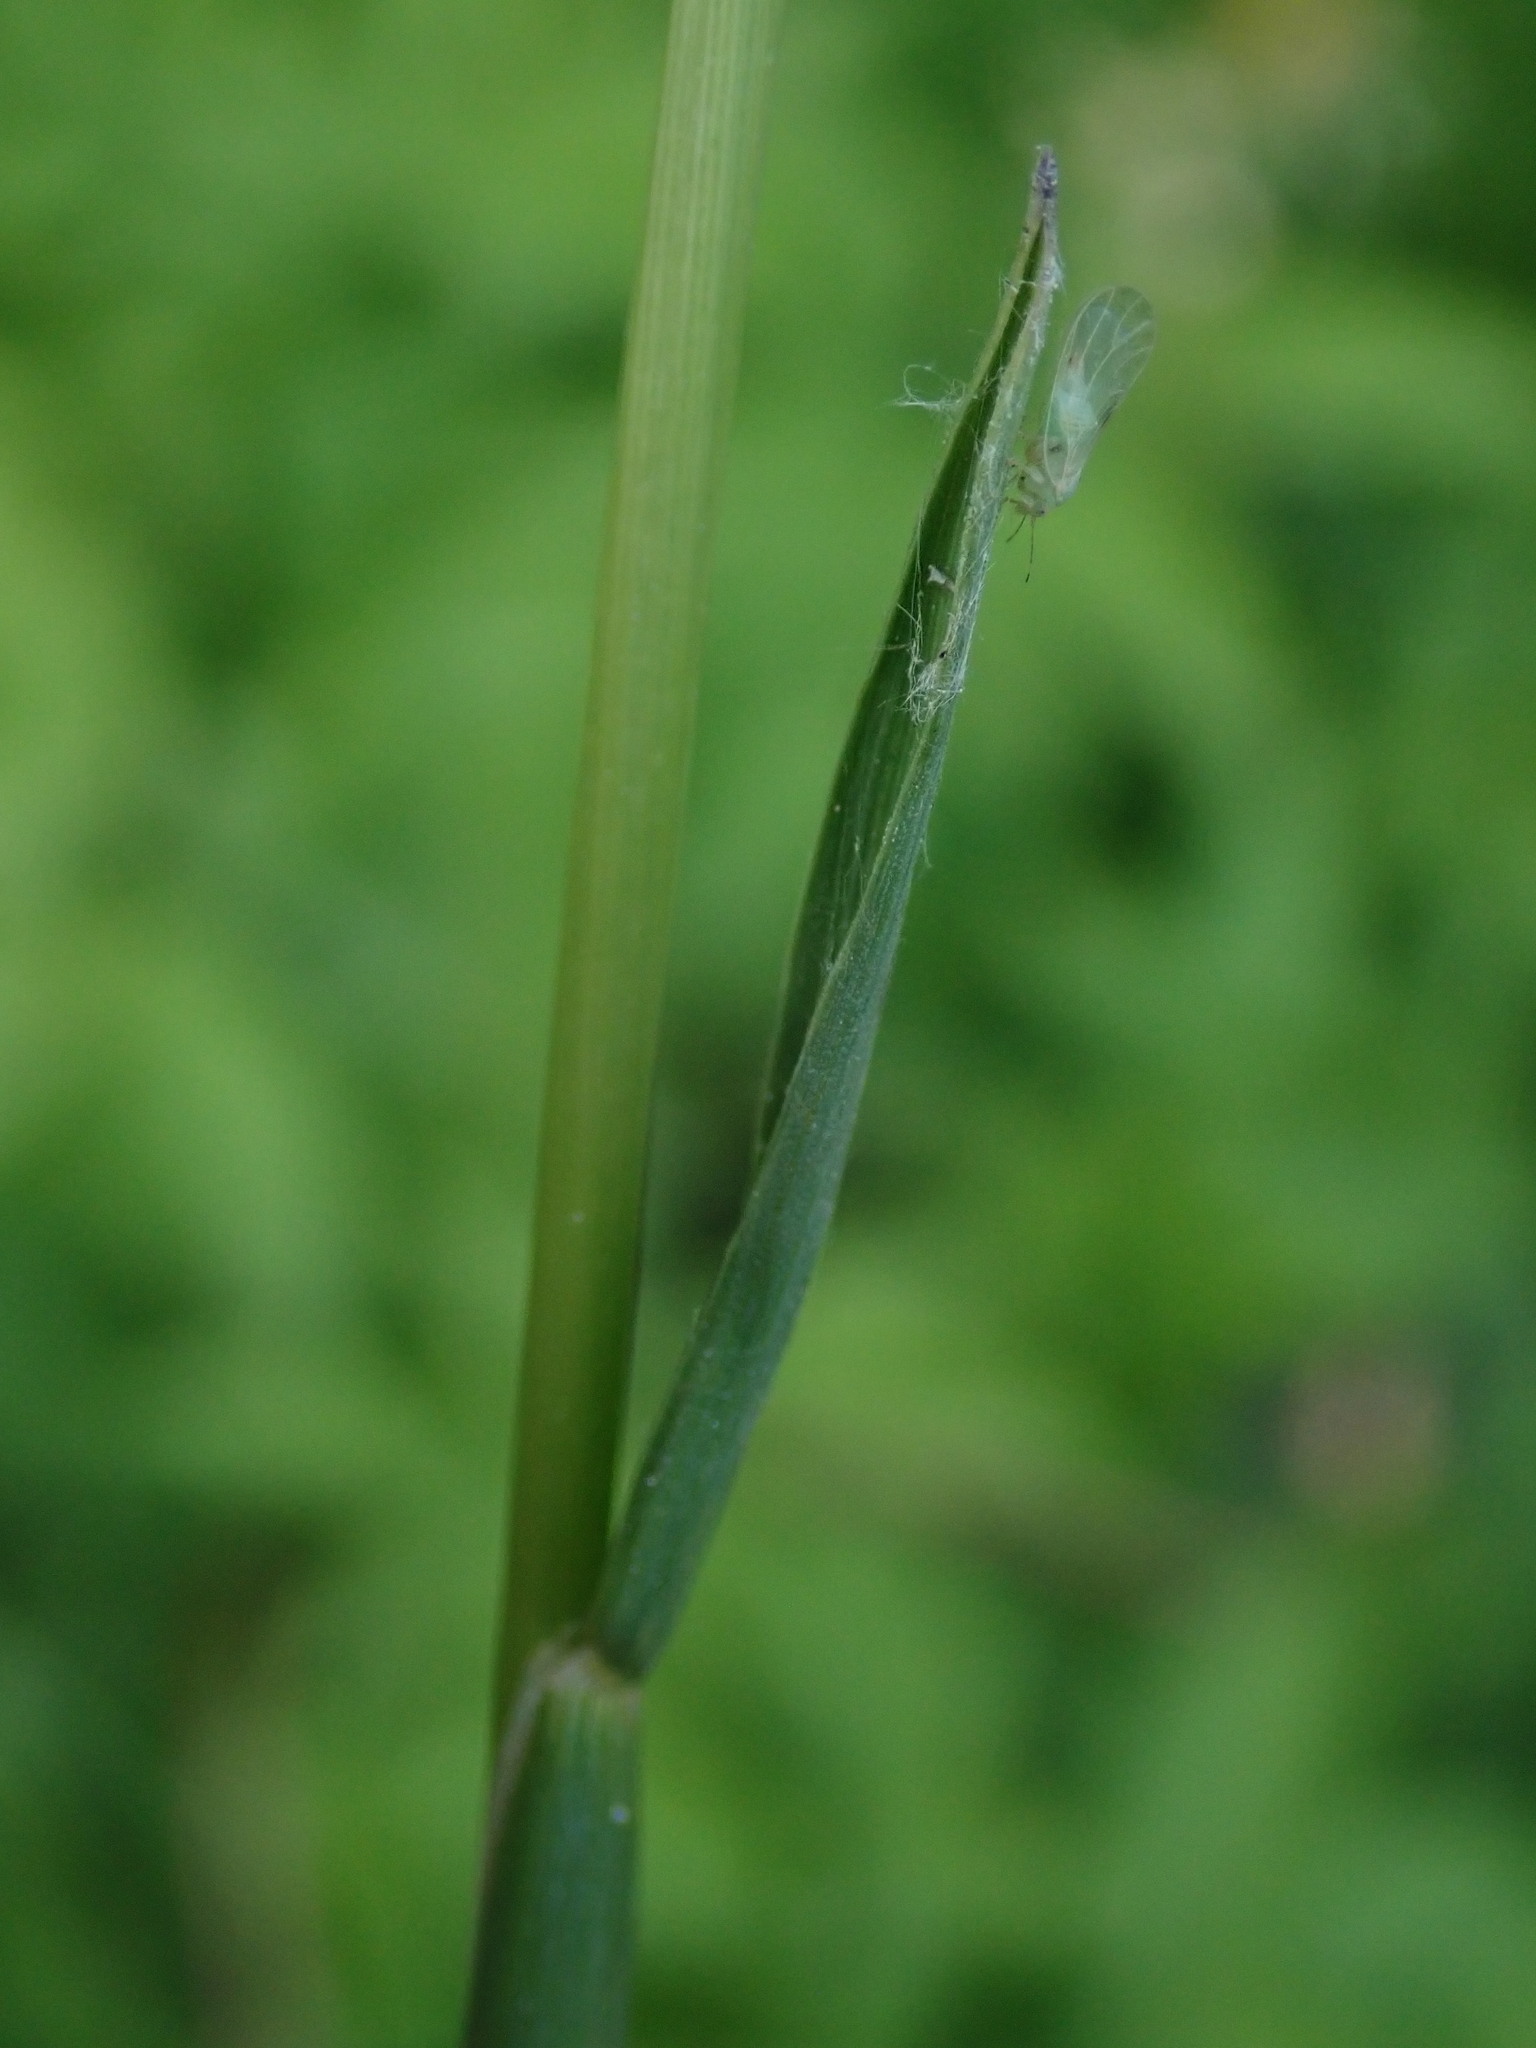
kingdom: Plantae
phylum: Tracheophyta
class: Liliopsida
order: Poales
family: Poaceae
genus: Alopecurus
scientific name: Alopecurus pratensis
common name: Meadow foxtail
